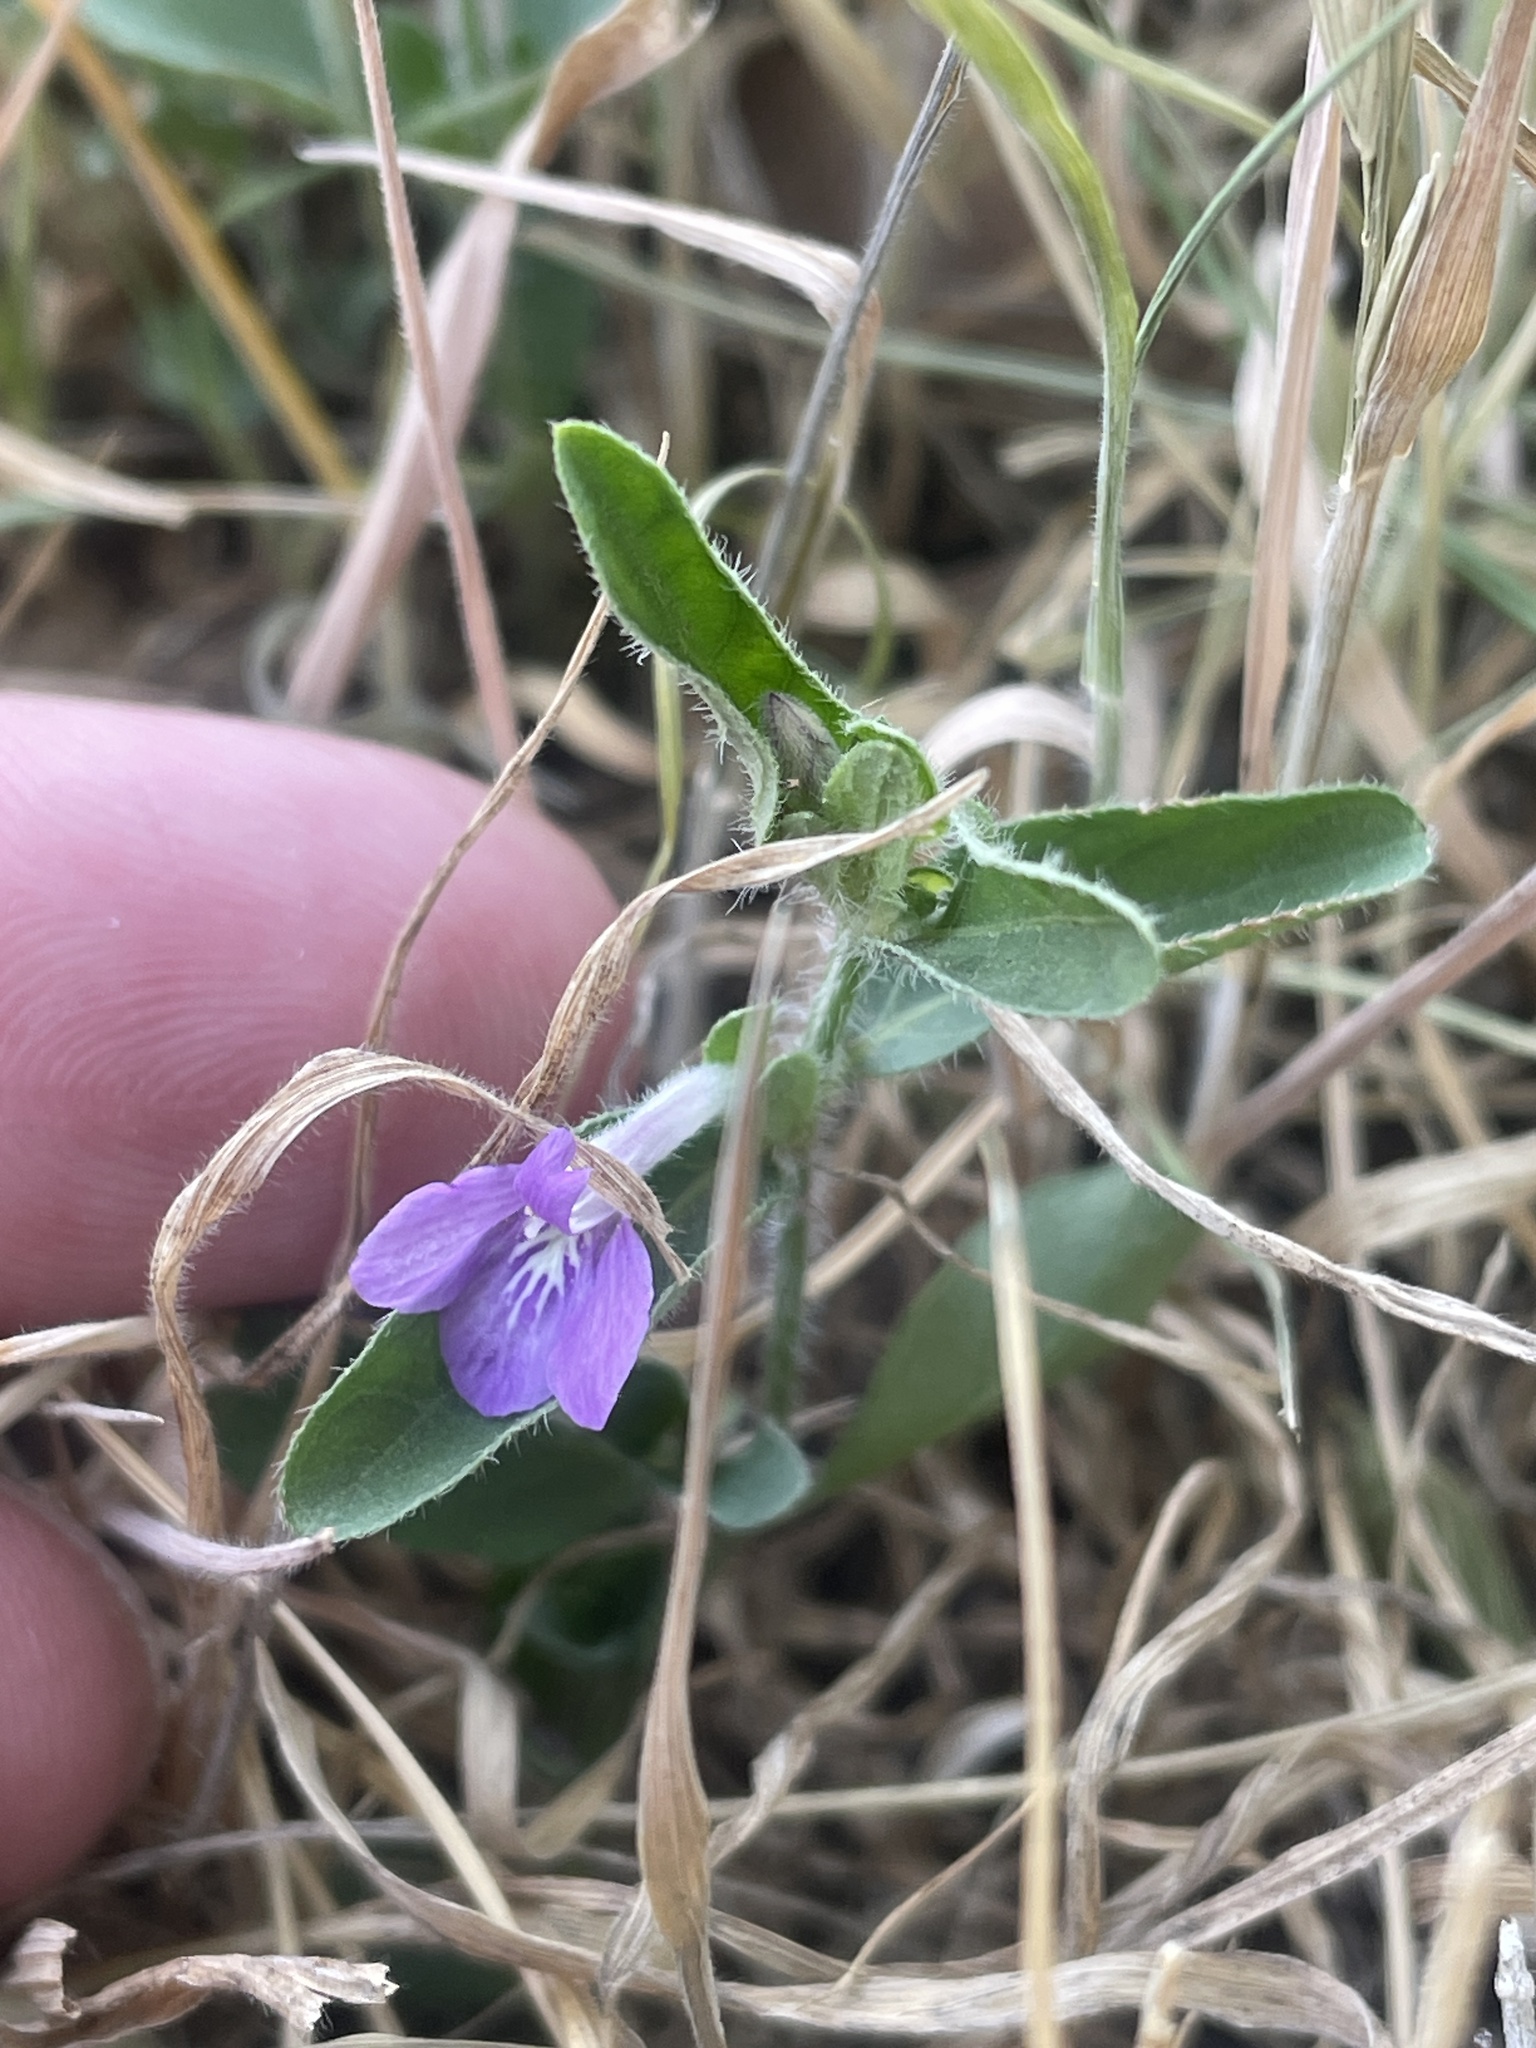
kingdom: Plantae
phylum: Tracheophyta
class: Magnoliopsida
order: Lamiales
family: Acanthaceae
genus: Justicia
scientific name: Justicia pilosella
